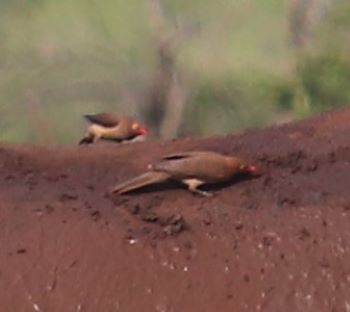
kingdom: Animalia
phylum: Chordata
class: Aves
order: Passeriformes
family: Buphagidae
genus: Buphagus
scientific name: Buphagus erythrorhynchus
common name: Red-billed oxpecker
